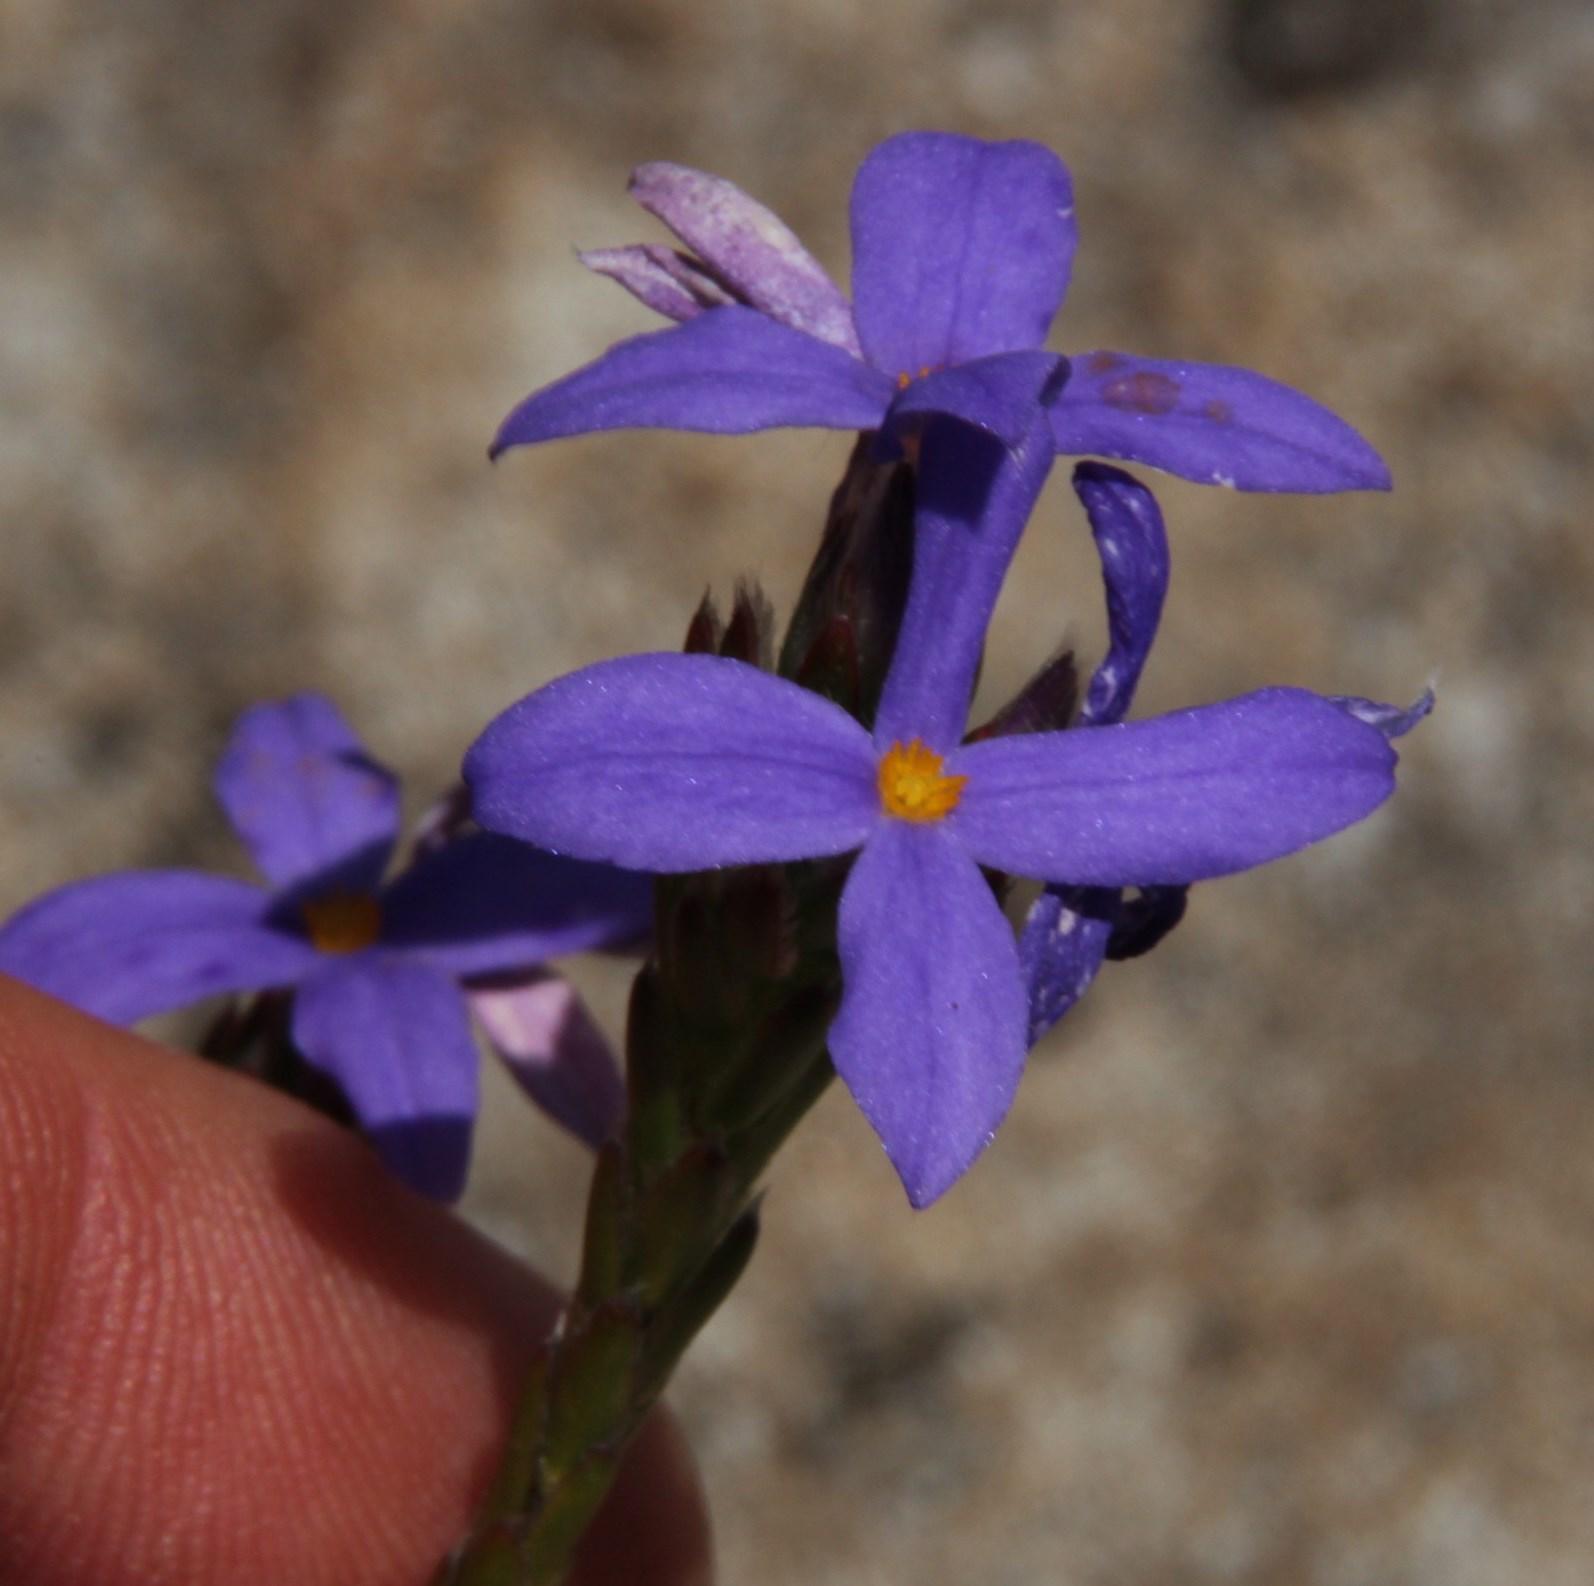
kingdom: Plantae
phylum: Tracheophyta
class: Magnoliopsida
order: Malvales
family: Thymelaeaceae
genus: Gnidia
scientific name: Gnidia penicillata
